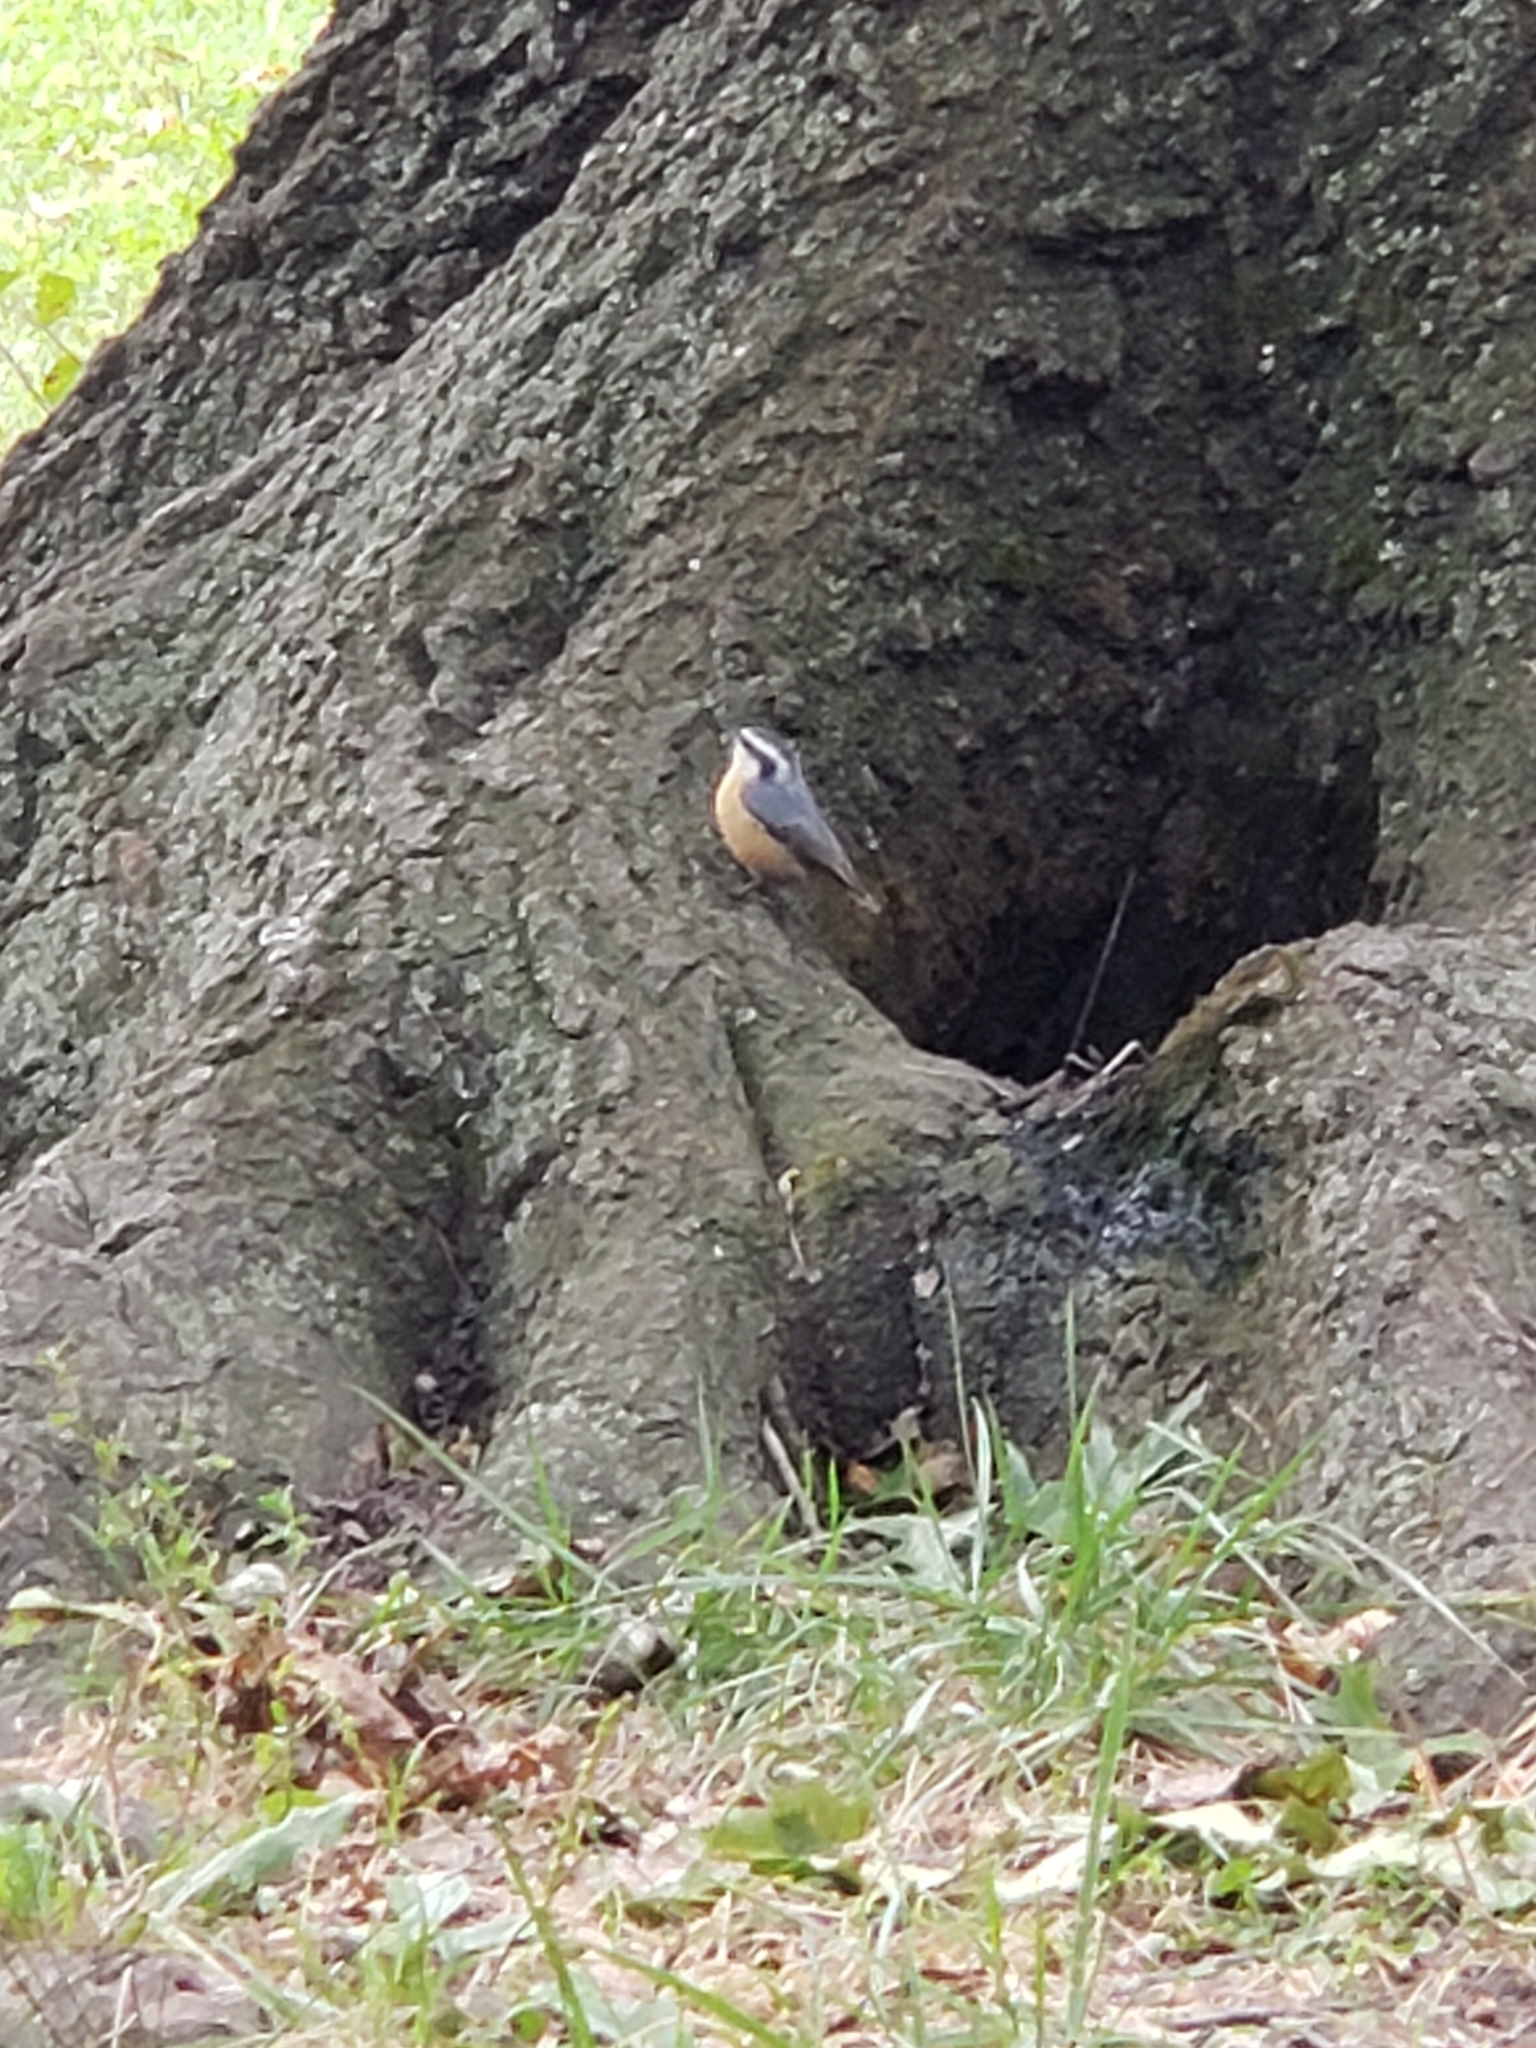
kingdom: Animalia
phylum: Chordata
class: Aves
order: Passeriformes
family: Sittidae
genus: Sitta
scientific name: Sitta canadensis
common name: Red-breasted nuthatch
